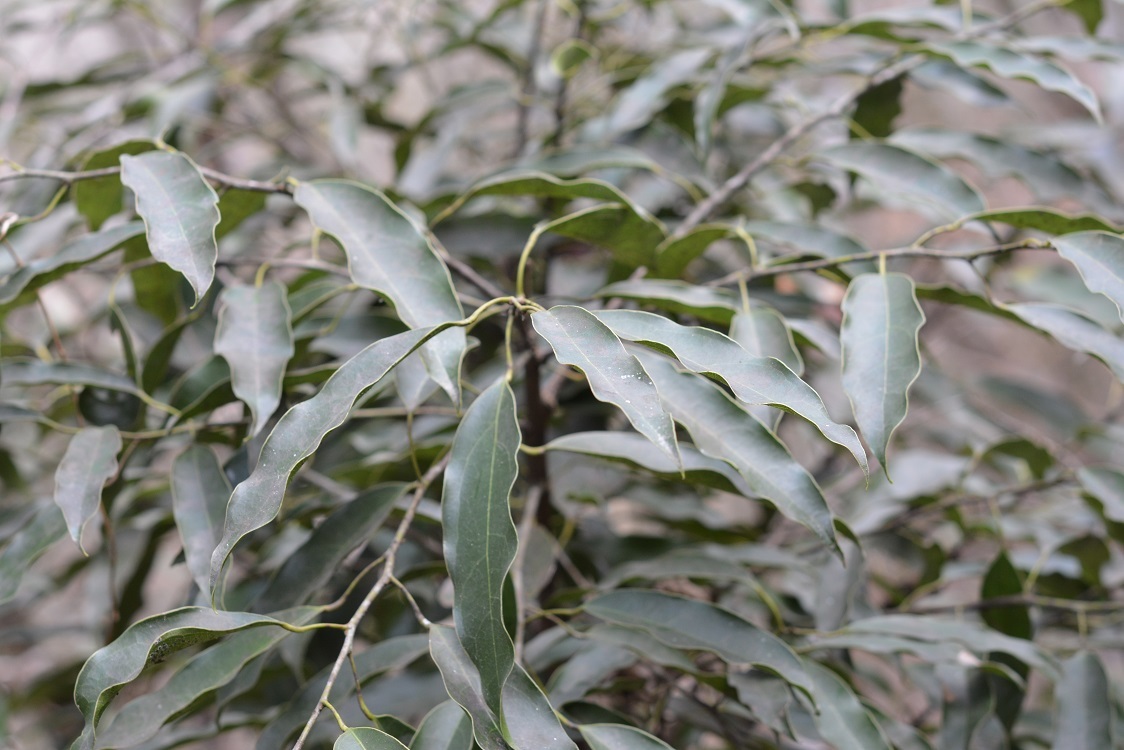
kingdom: Plantae
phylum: Tracheophyta
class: Magnoliopsida
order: Ranunculales
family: Menispermaceae
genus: Hyperbaena
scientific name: Hyperbaena mexicana
